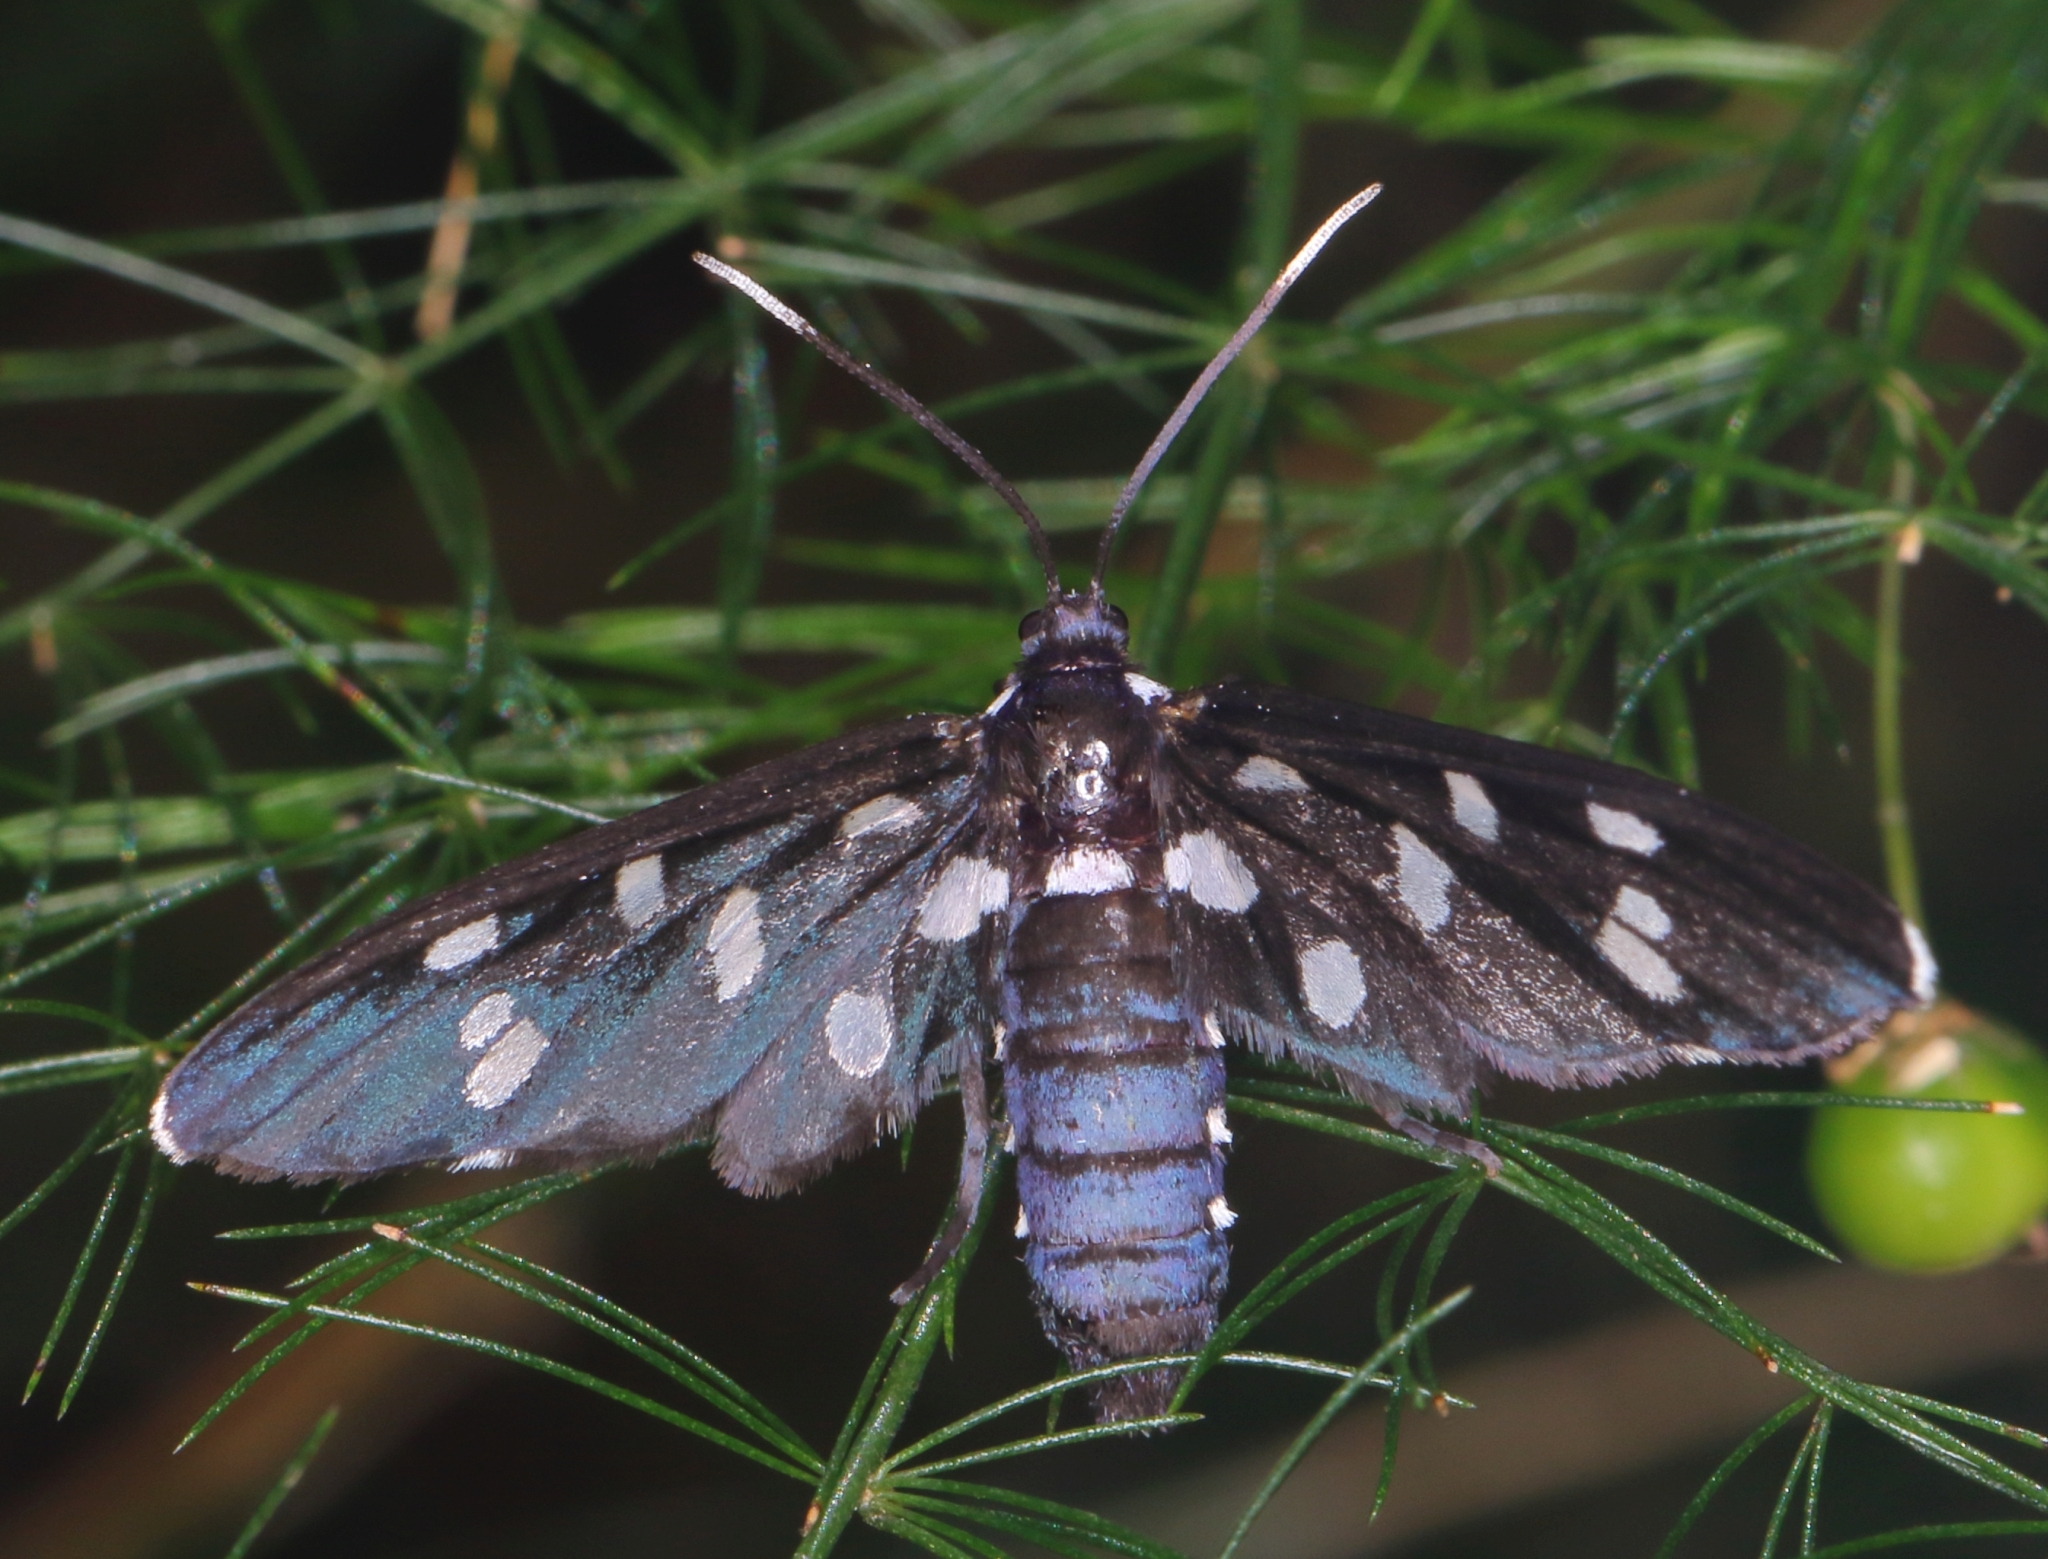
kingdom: Animalia
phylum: Arthropoda
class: Insecta
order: Lepidoptera
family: Erebidae
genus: Ceryx
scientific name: Ceryx longipes
